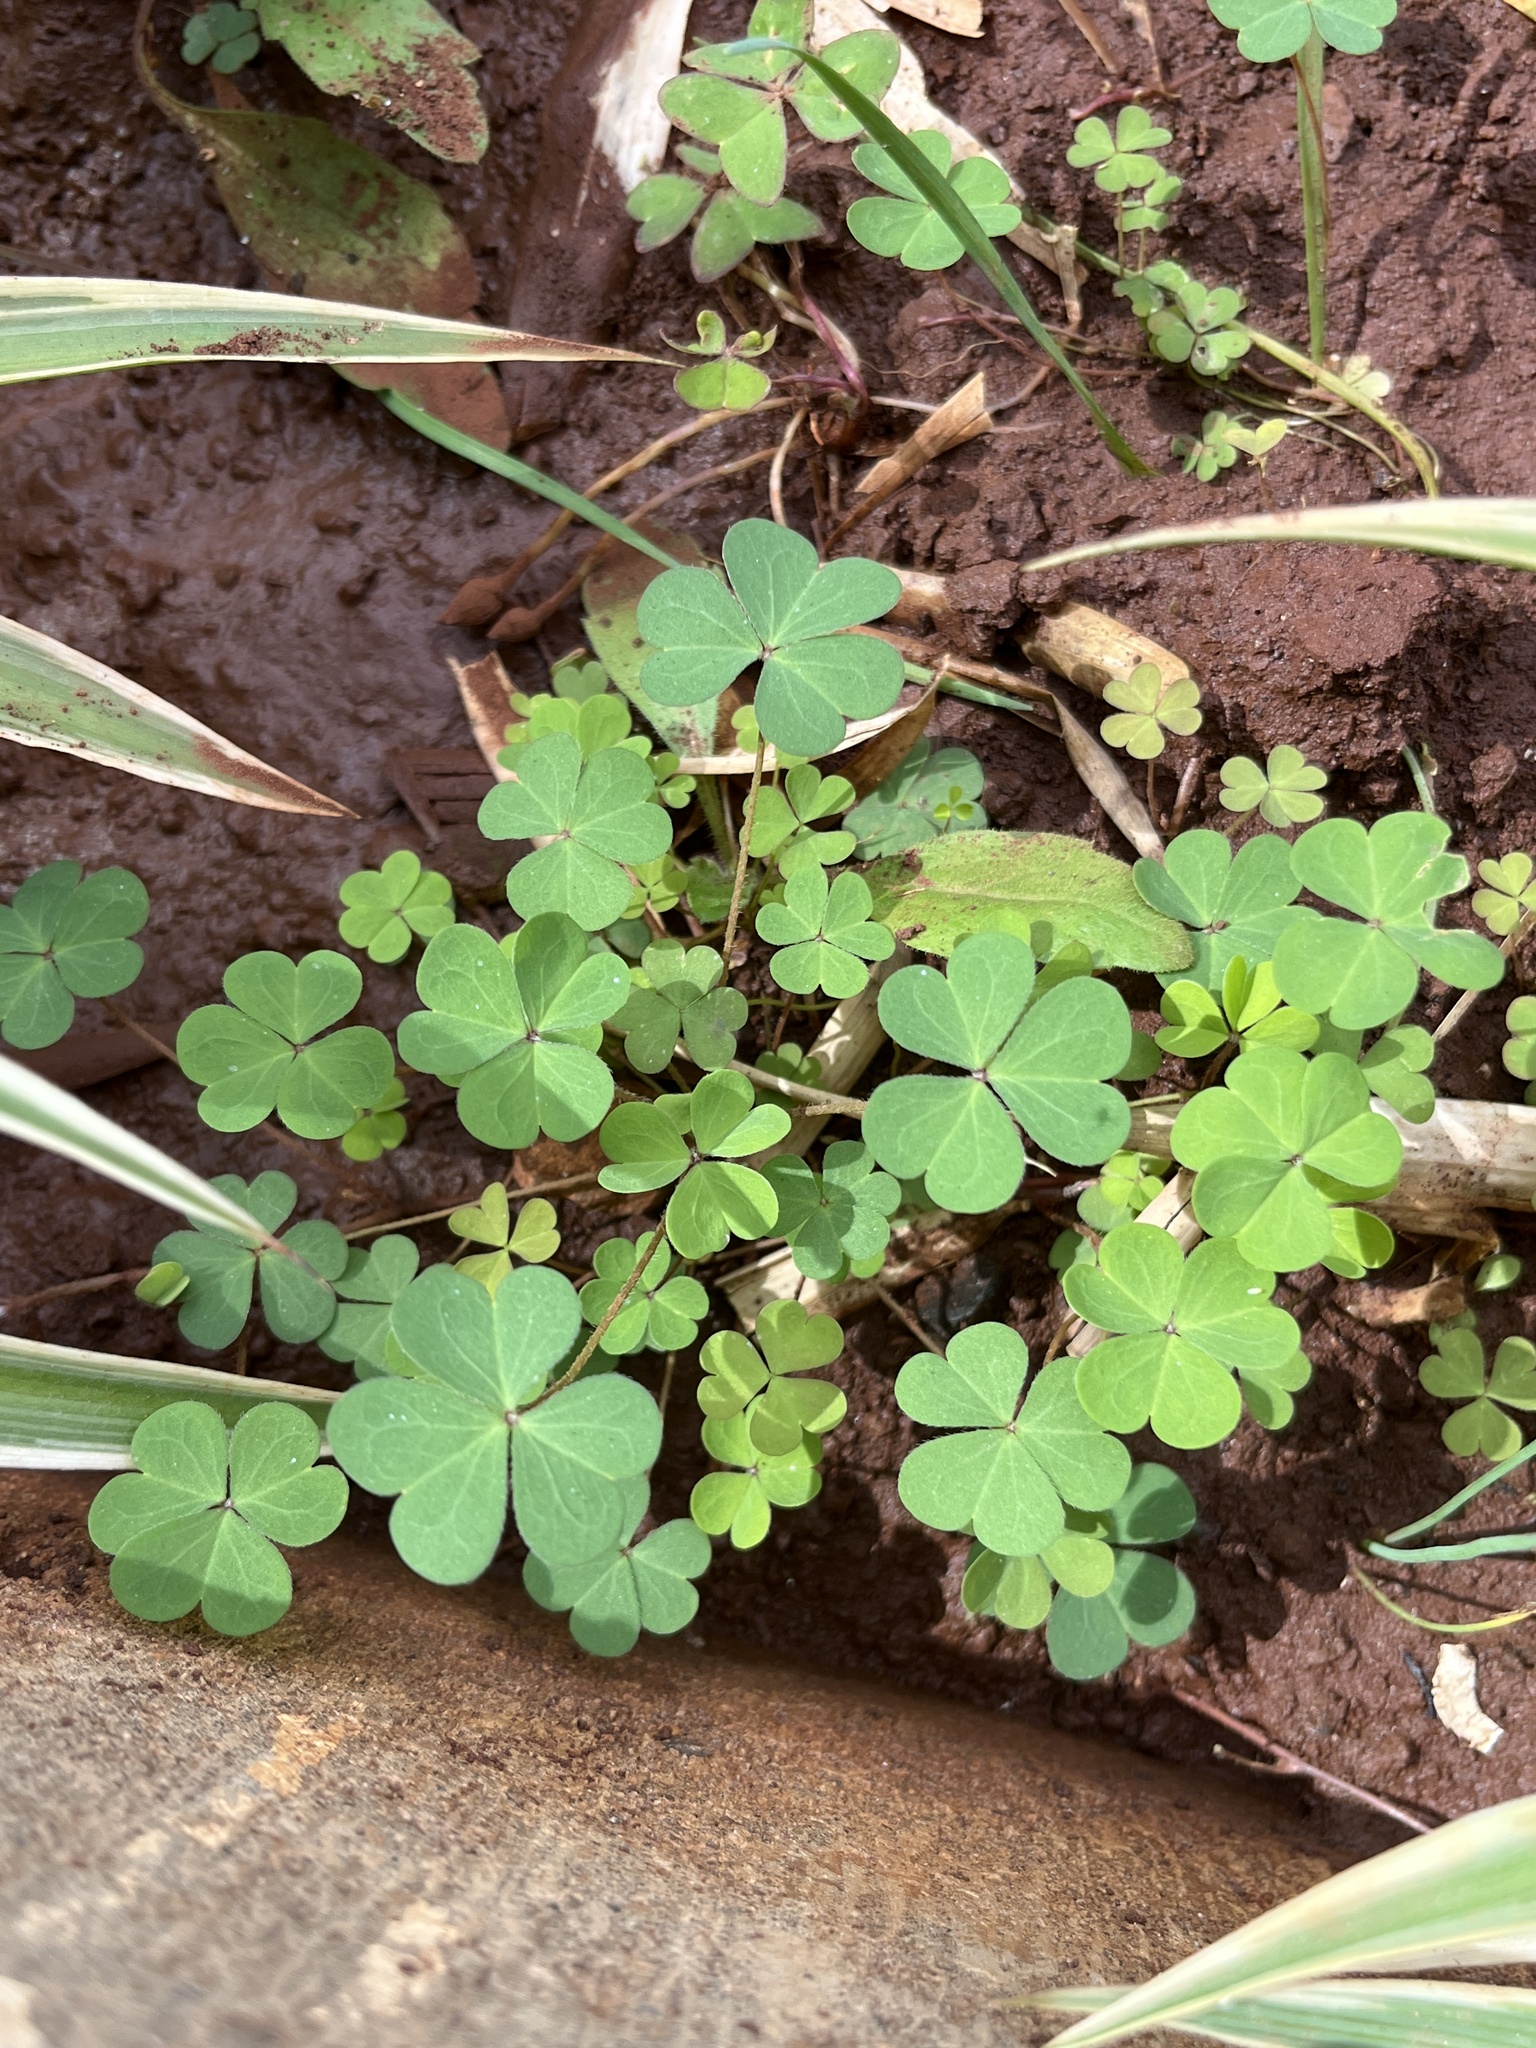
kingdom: Plantae
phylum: Tracheophyta
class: Magnoliopsida
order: Oxalidales
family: Oxalidaceae
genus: Oxalis
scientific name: Oxalis corniculata
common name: Procumbent yellow-sorrel
